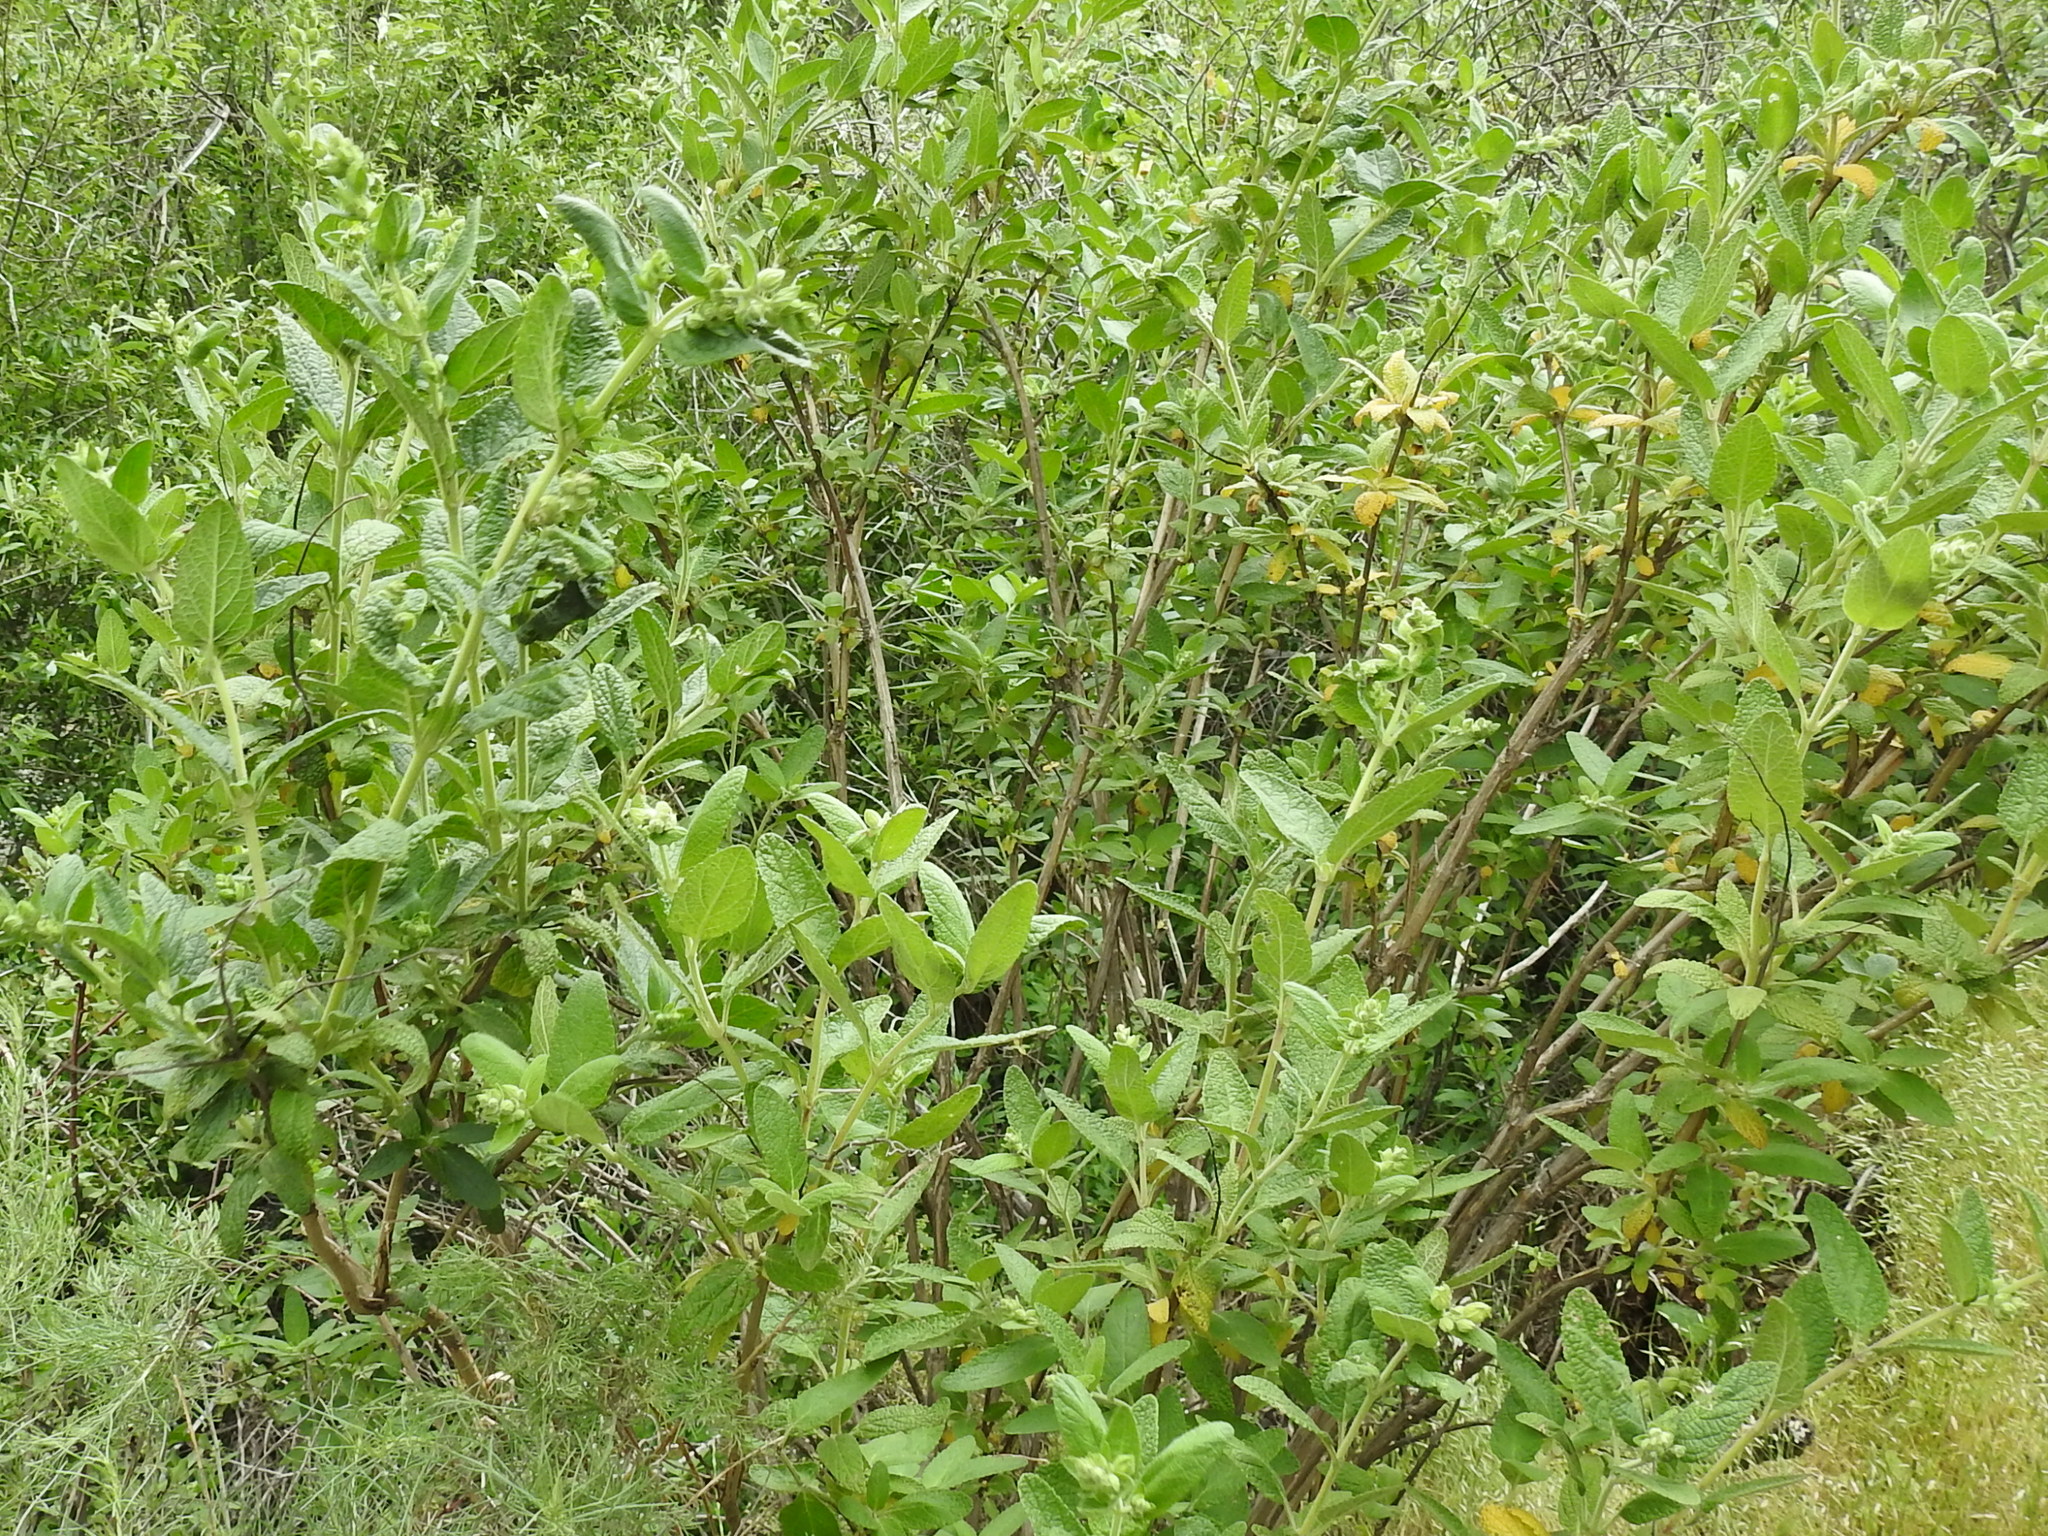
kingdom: Plantae
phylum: Tracheophyta
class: Magnoliopsida
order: Lamiales
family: Lamiaceae
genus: Lepechinia
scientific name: Lepechinia calycina
